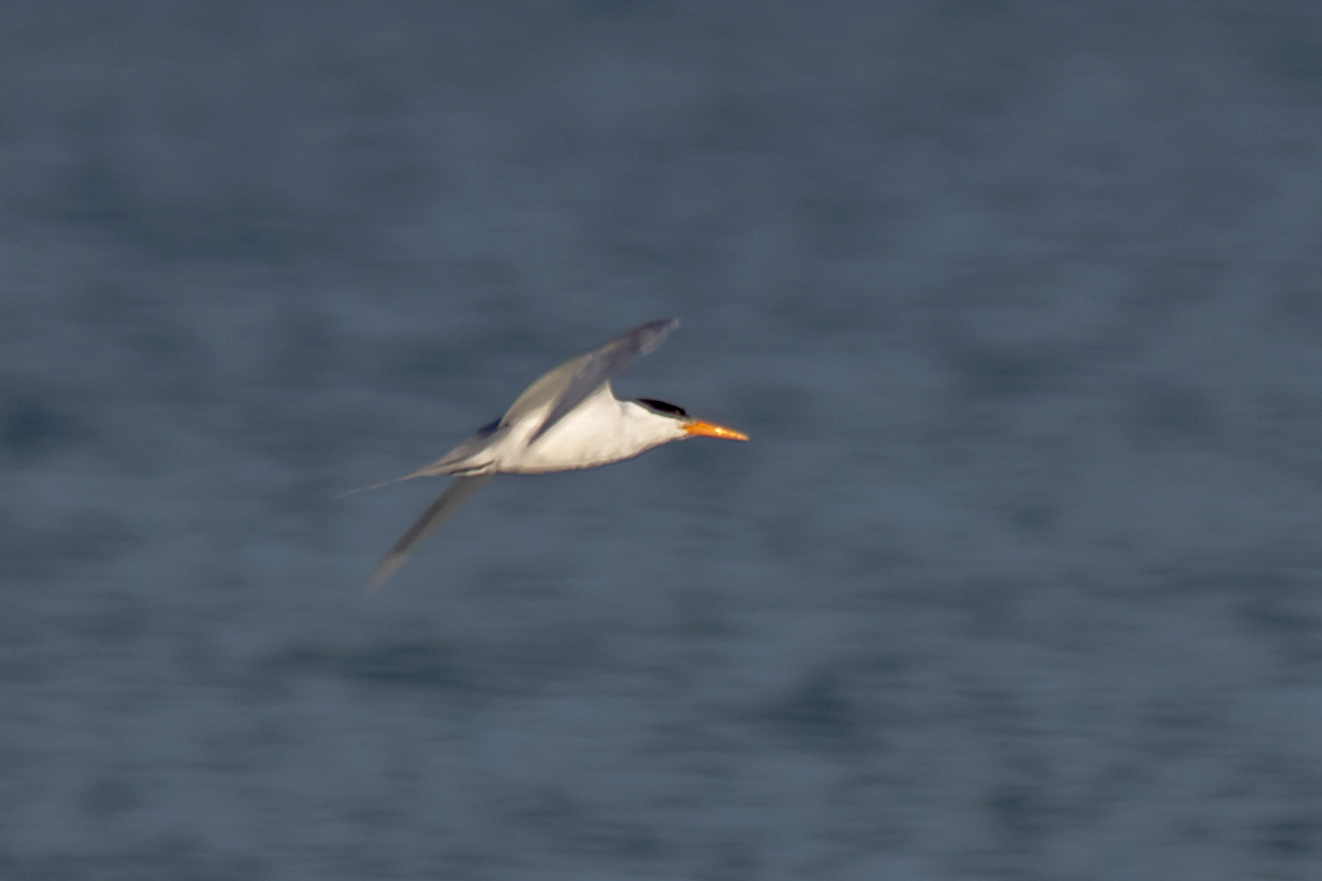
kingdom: Animalia
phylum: Chordata
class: Aves
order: Charadriiformes
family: Laridae
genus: Thalasseus
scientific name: Thalasseus bengalensis
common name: Lesser crested tern
